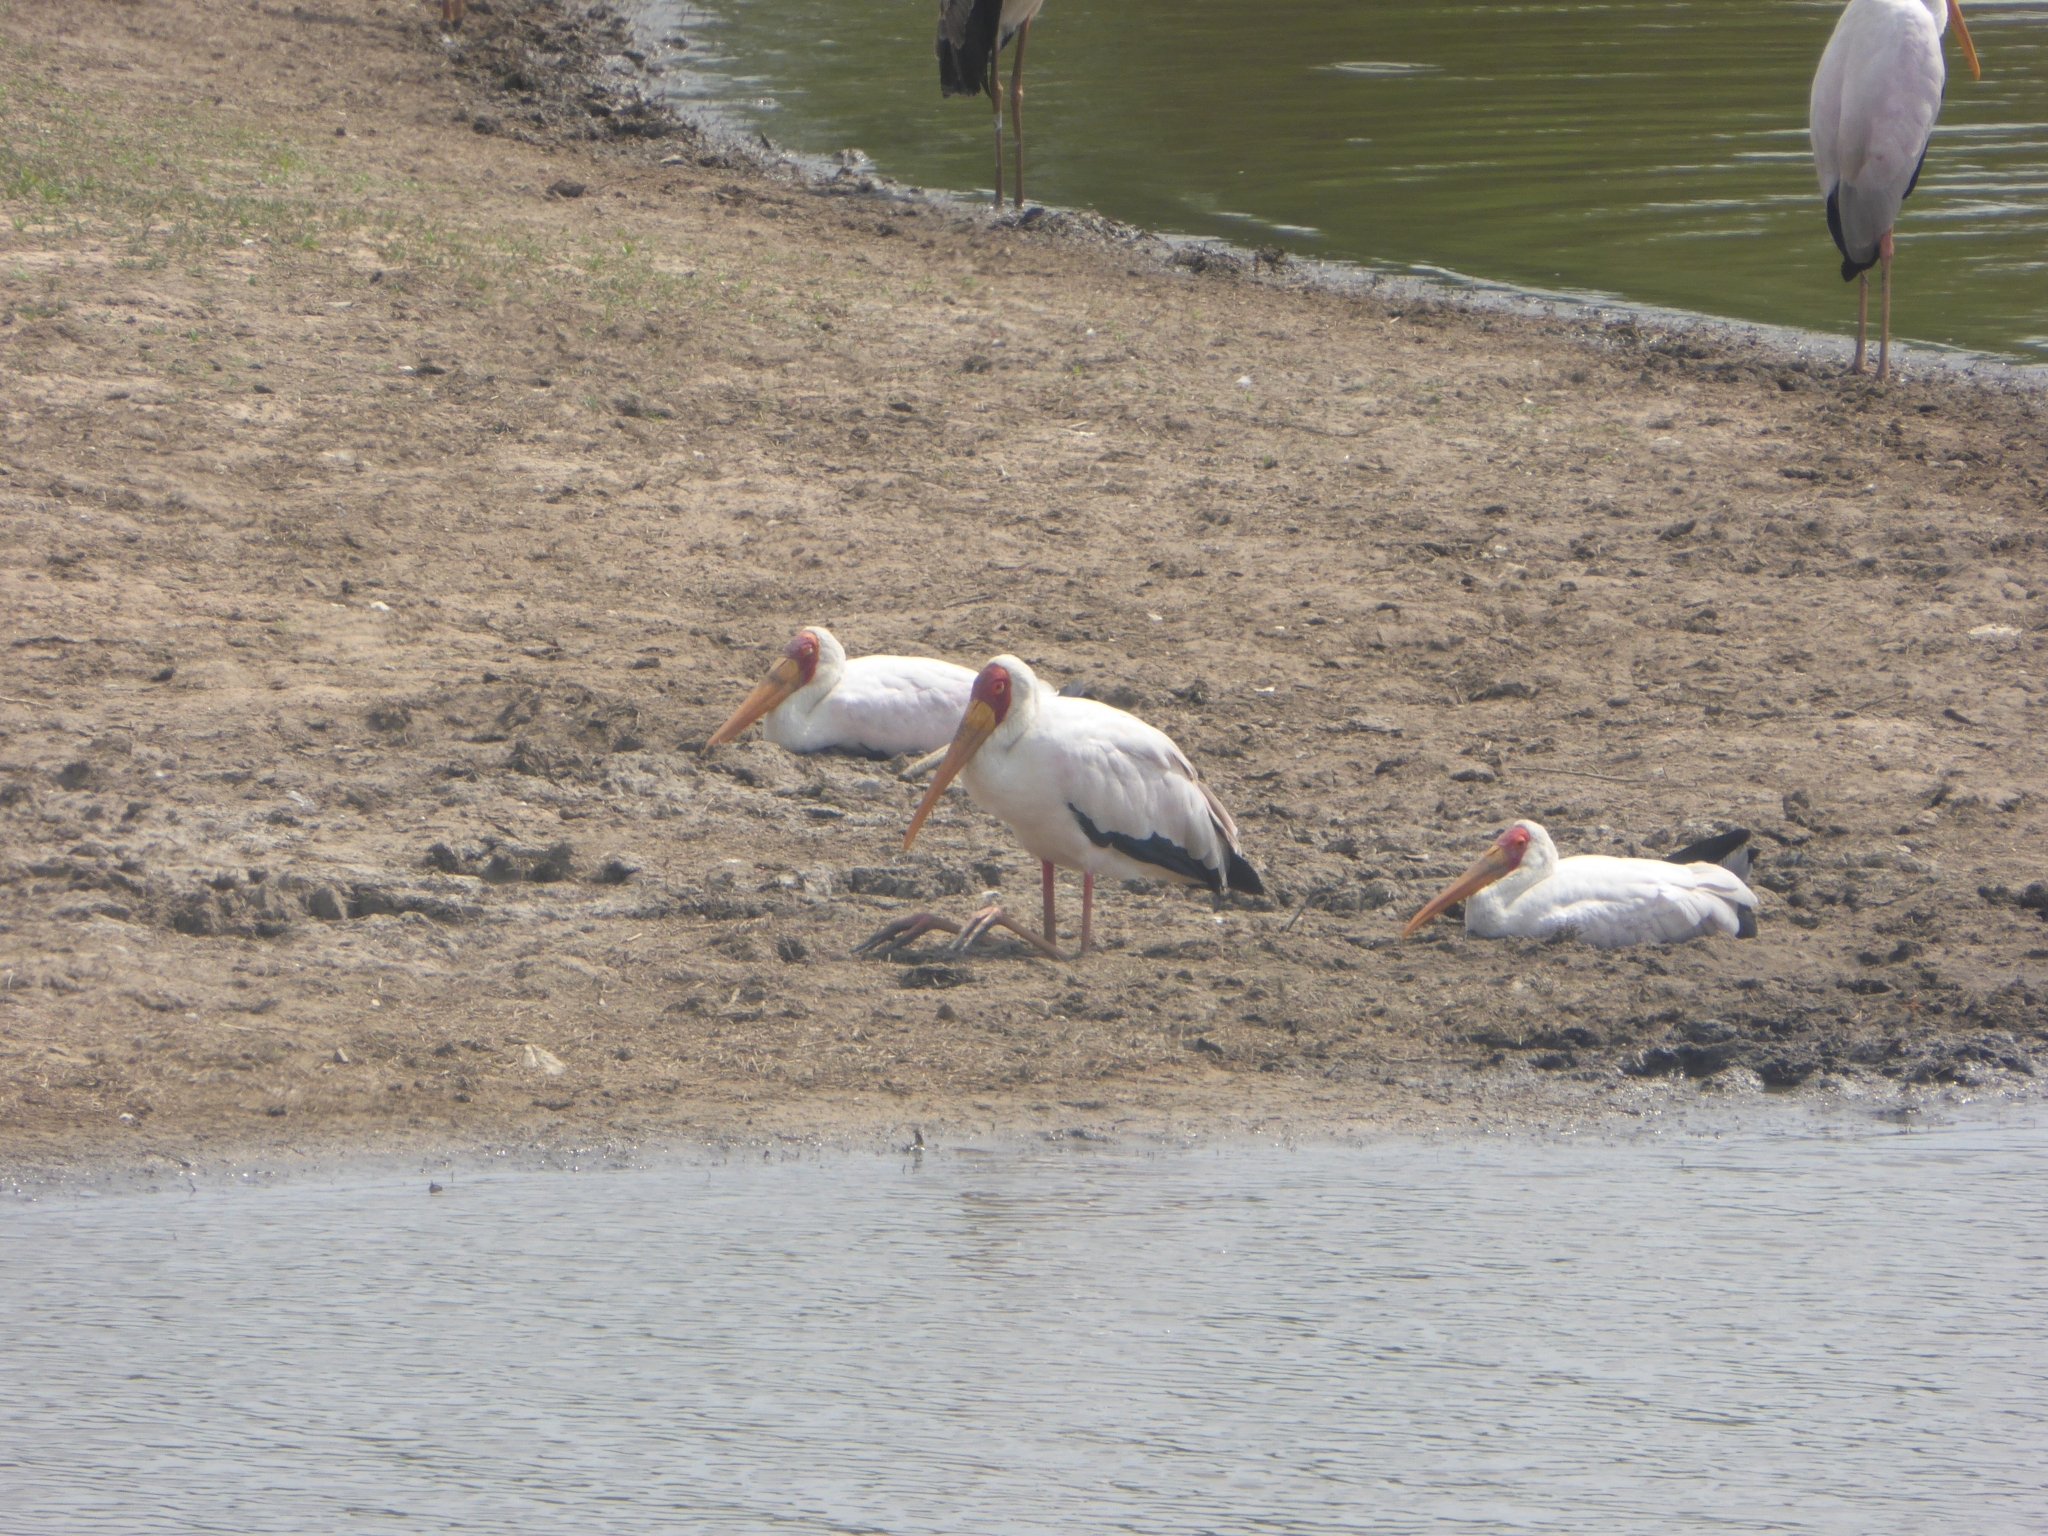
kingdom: Animalia
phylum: Chordata
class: Aves
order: Ciconiiformes
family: Ciconiidae
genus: Mycteria
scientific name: Mycteria ibis
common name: Yellow-billed stork
